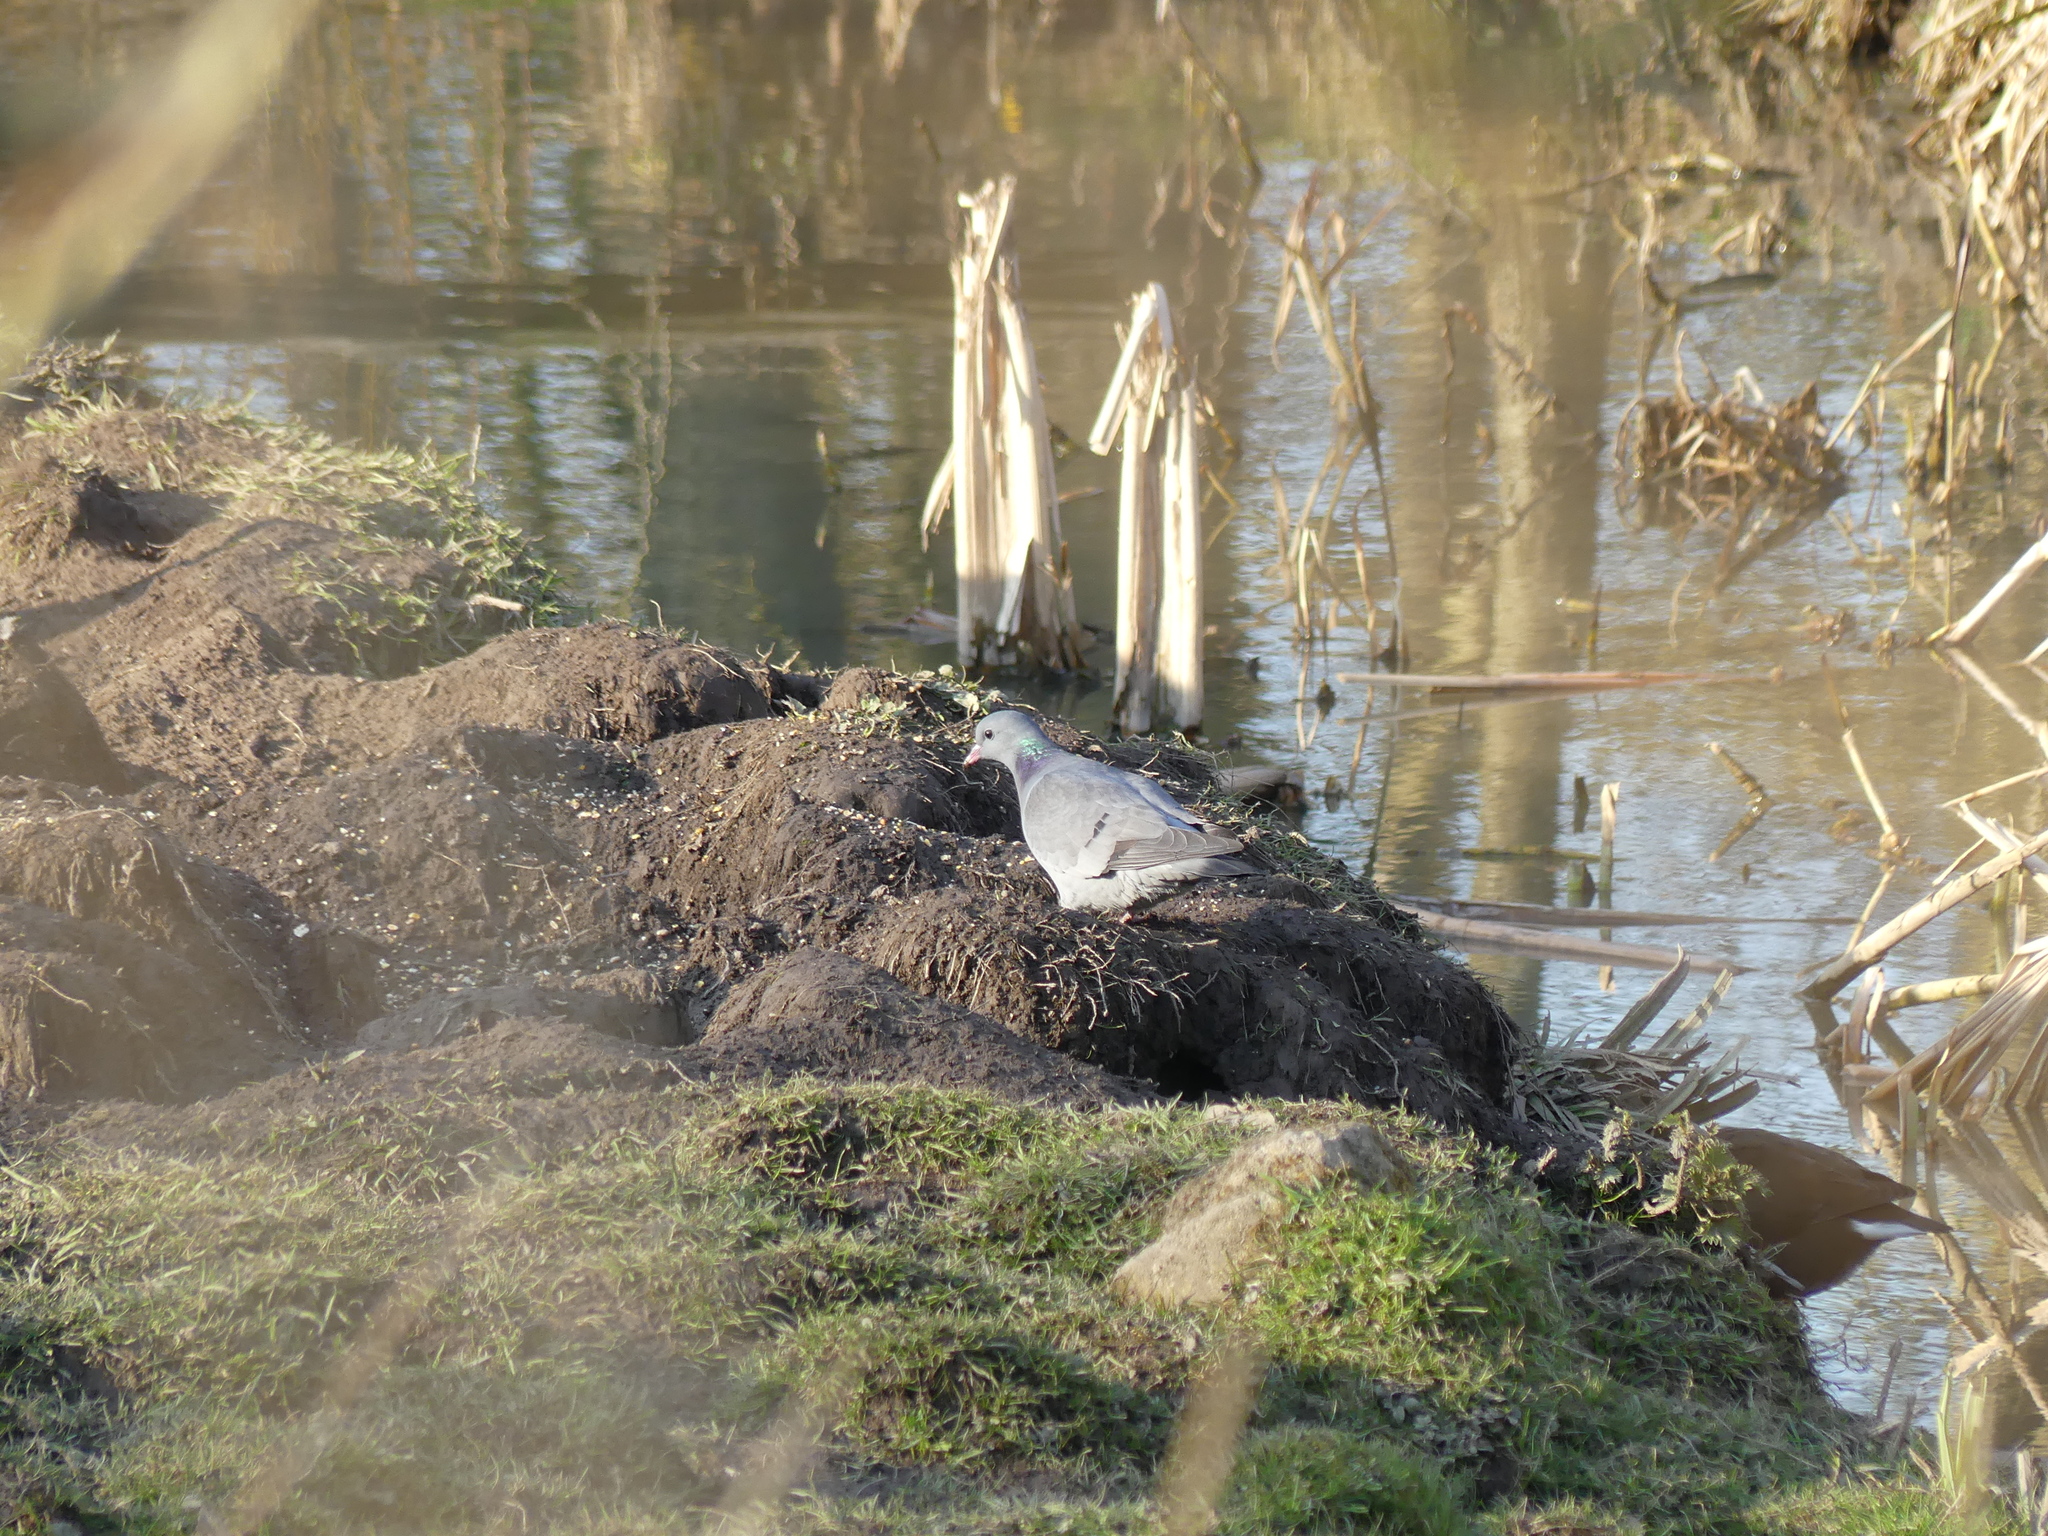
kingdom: Animalia
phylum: Chordata
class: Aves
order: Columbiformes
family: Columbidae
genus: Columba
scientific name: Columba oenas
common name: Stock dove
